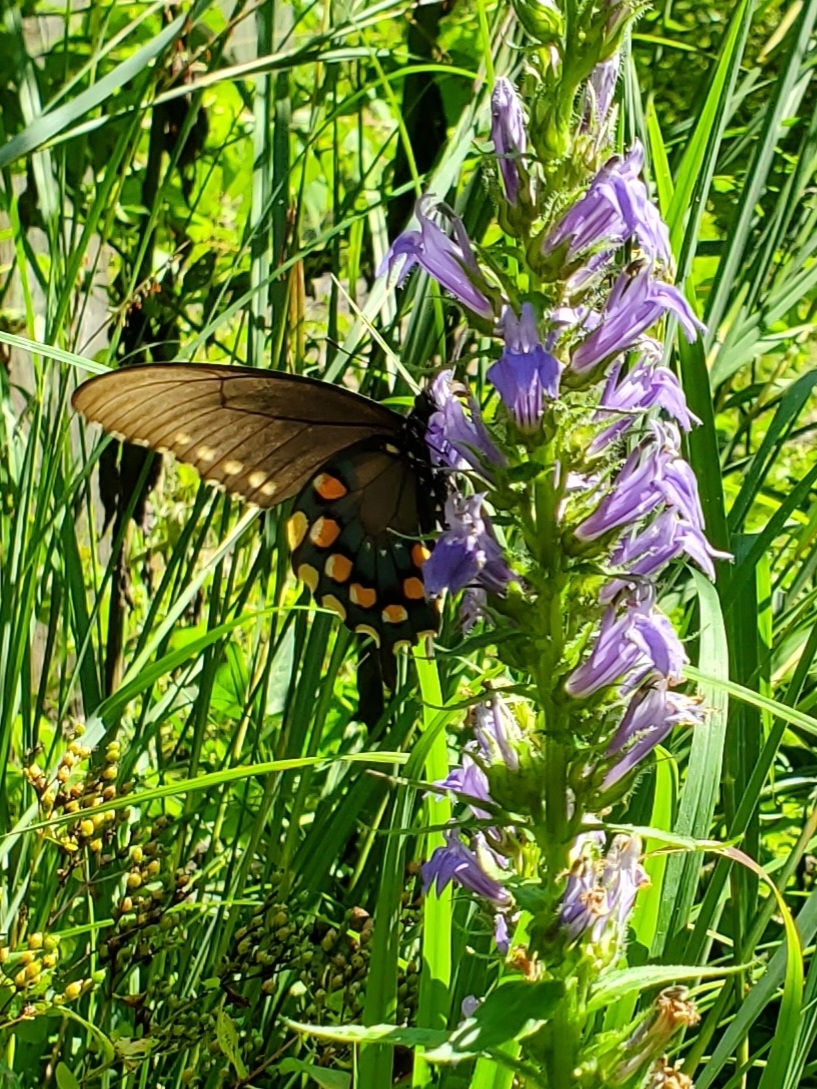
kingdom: Animalia
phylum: Arthropoda
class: Insecta
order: Lepidoptera
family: Papilionidae
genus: Battus
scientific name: Battus philenor
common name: Pipevine swallowtail
